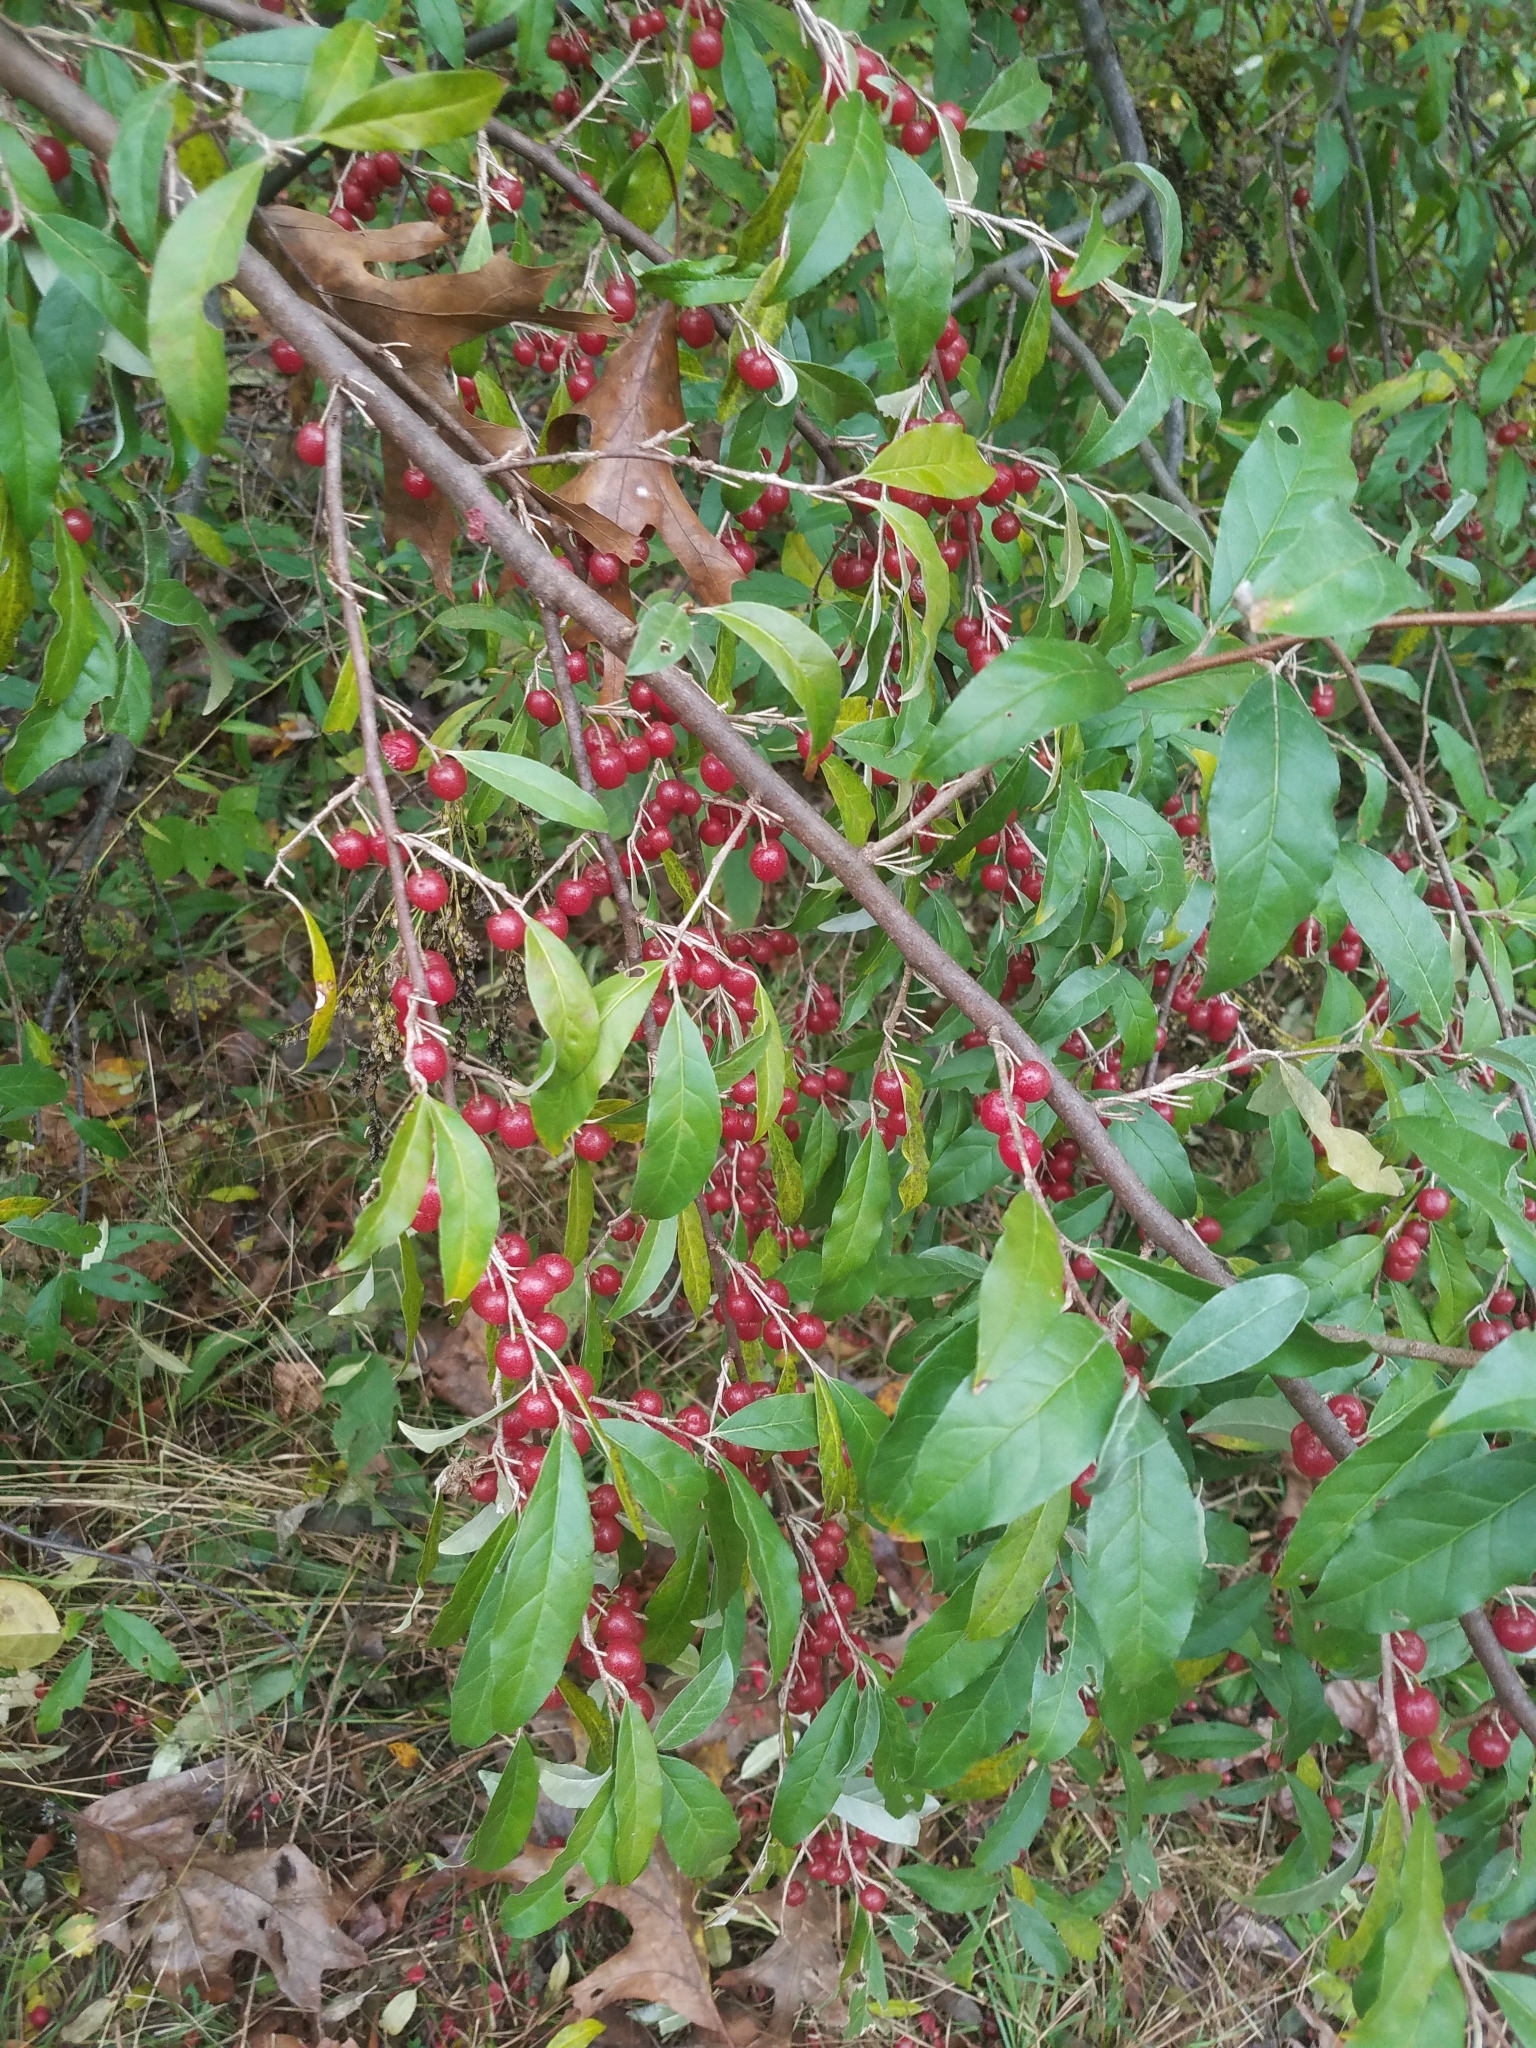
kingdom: Plantae
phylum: Tracheophyta
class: Magnoliopsida
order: Rosales
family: Elaeagnaceae
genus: Elaeagnus
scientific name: Elaeagnus umbellata
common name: Autumn olive
